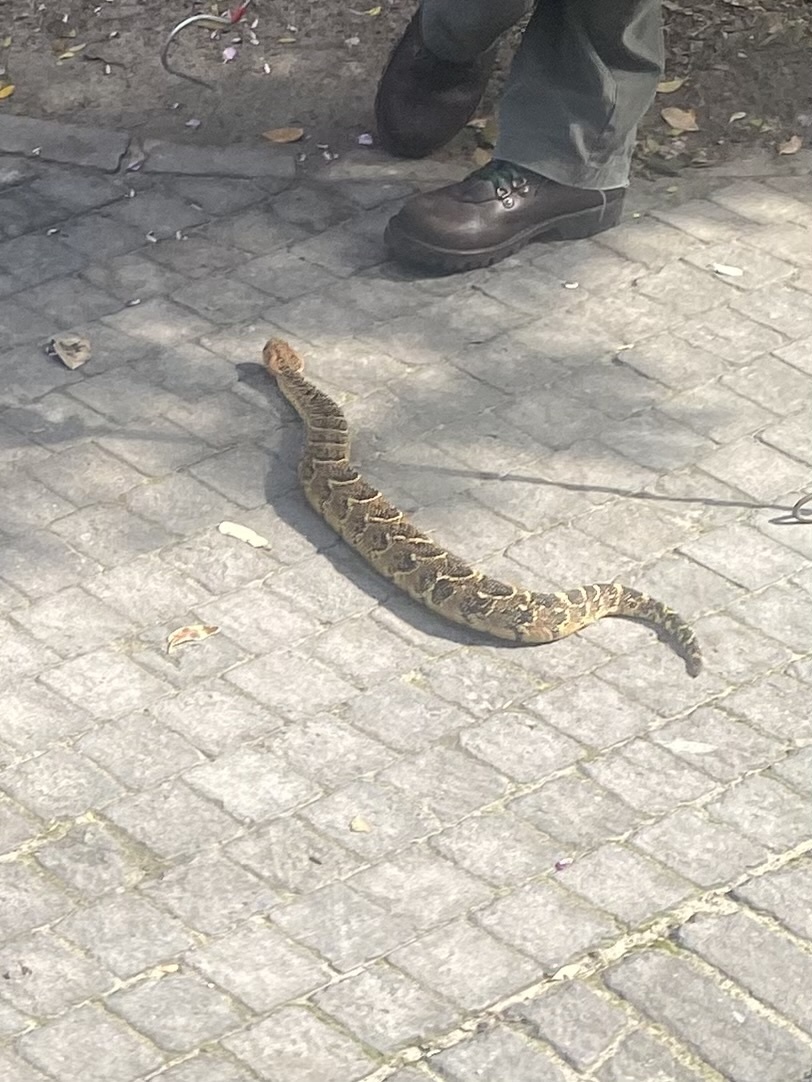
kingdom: Animalia
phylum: Chordata
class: Squamata
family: Viperidae
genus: Bitis
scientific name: Bitis arietans
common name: Puff adder
